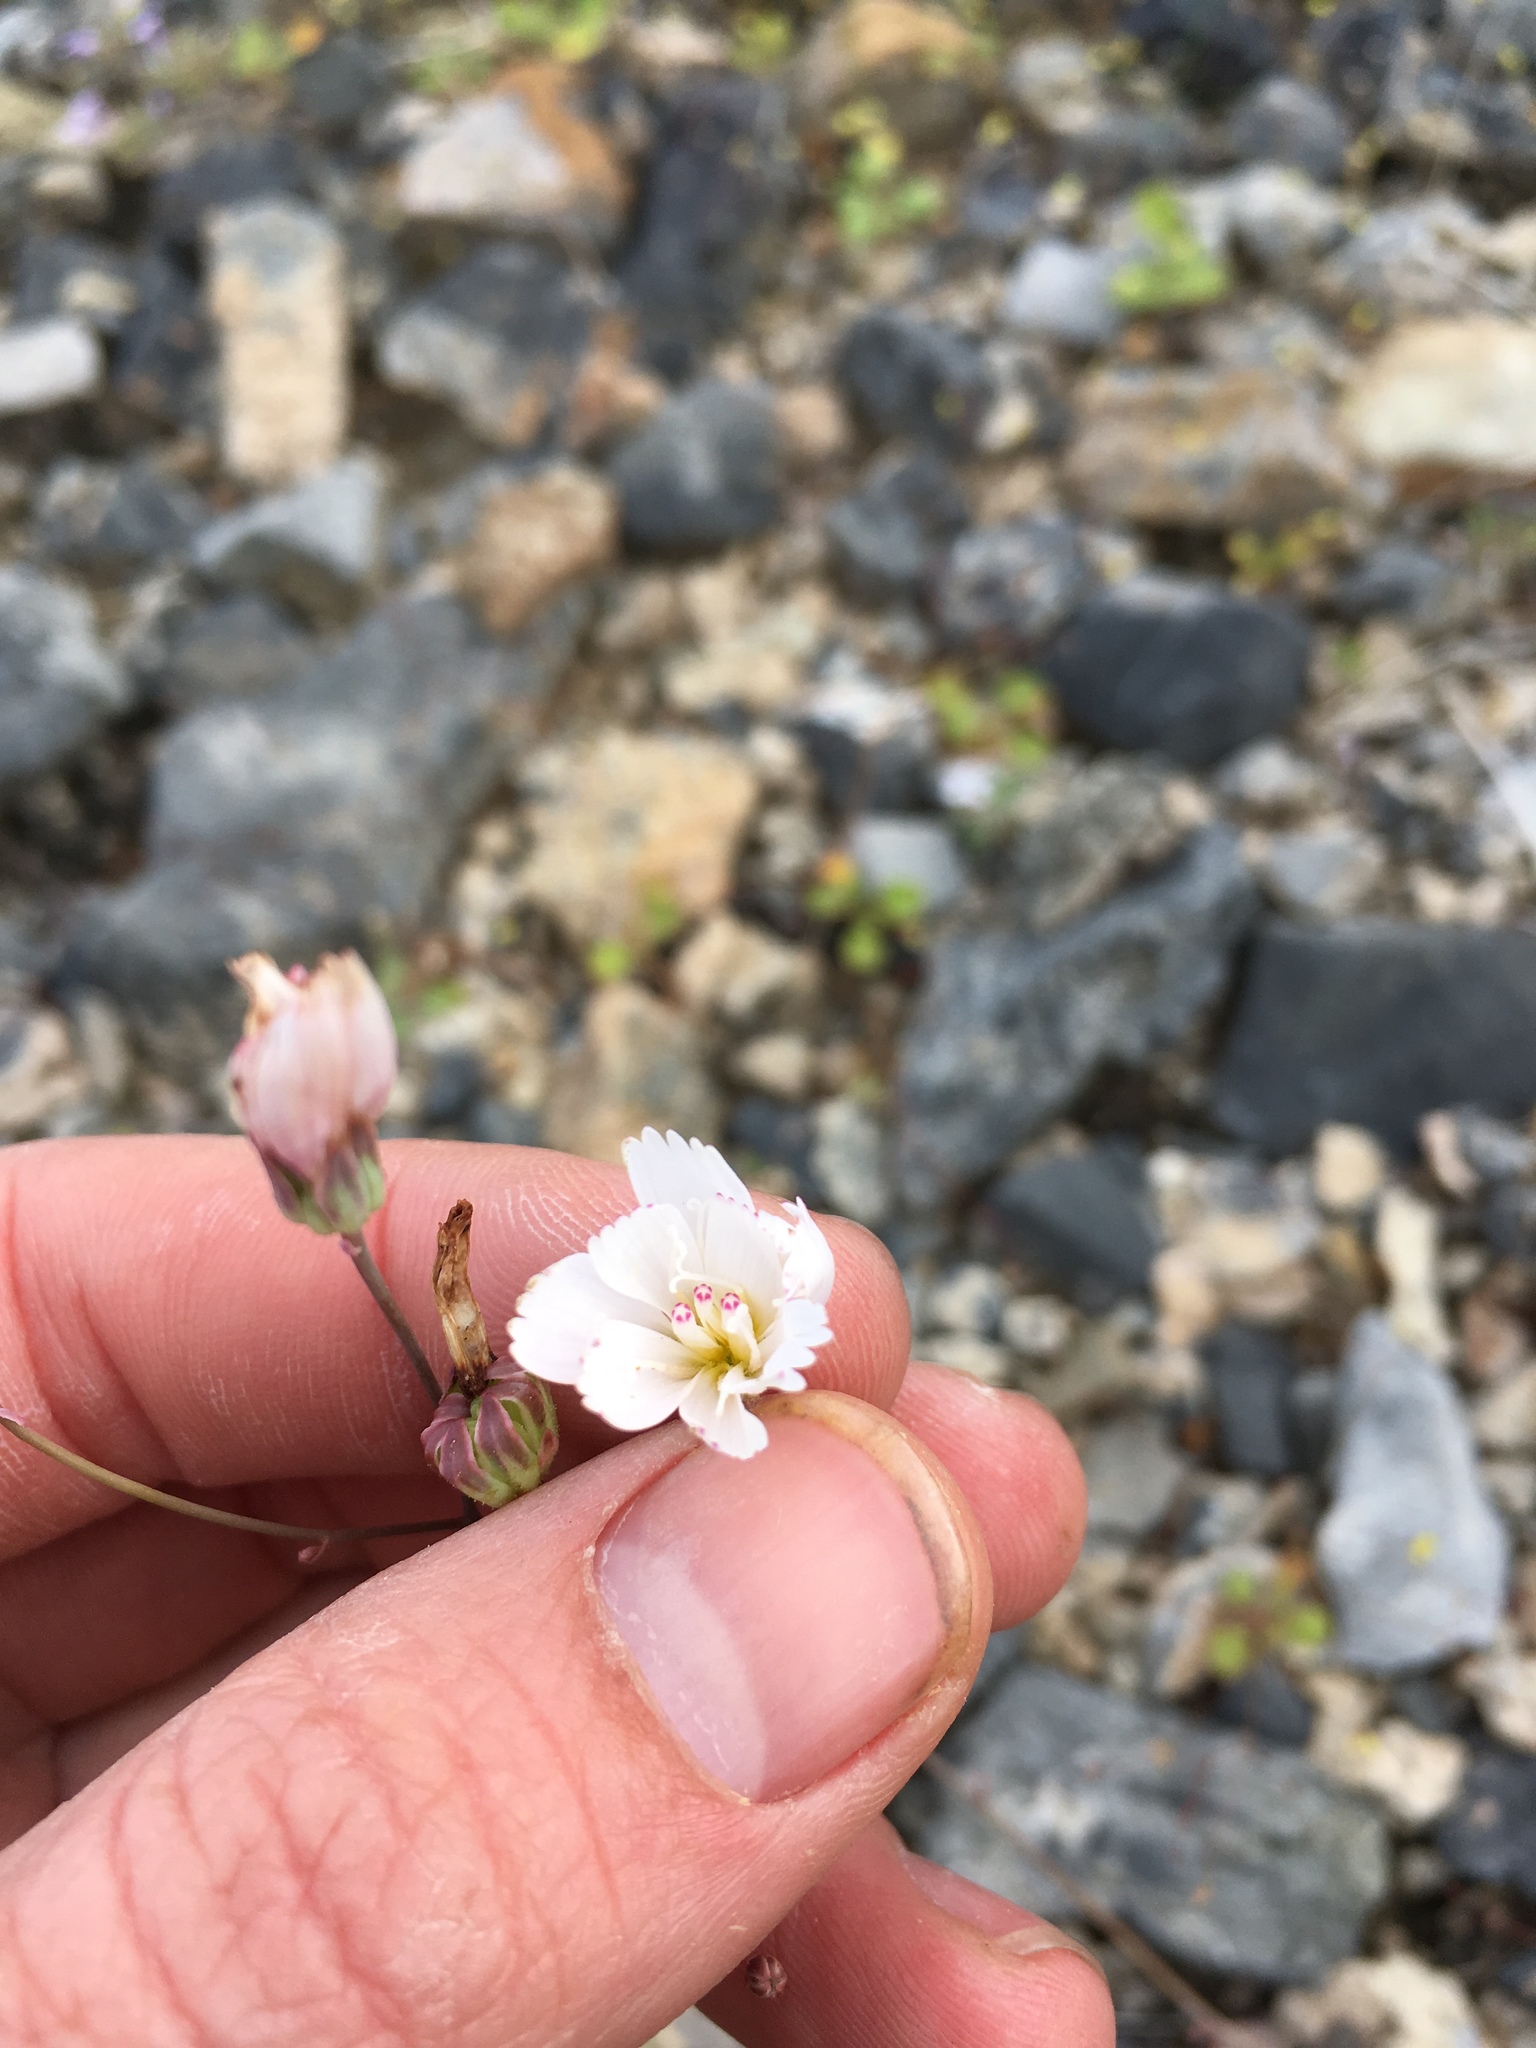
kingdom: Plantae
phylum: Tracheophyta
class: Magnoliopsida
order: Asterales
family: Asteraceae
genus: Atrichoseris
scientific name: Atrichoseris platyphylla
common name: Tobaccoweed
